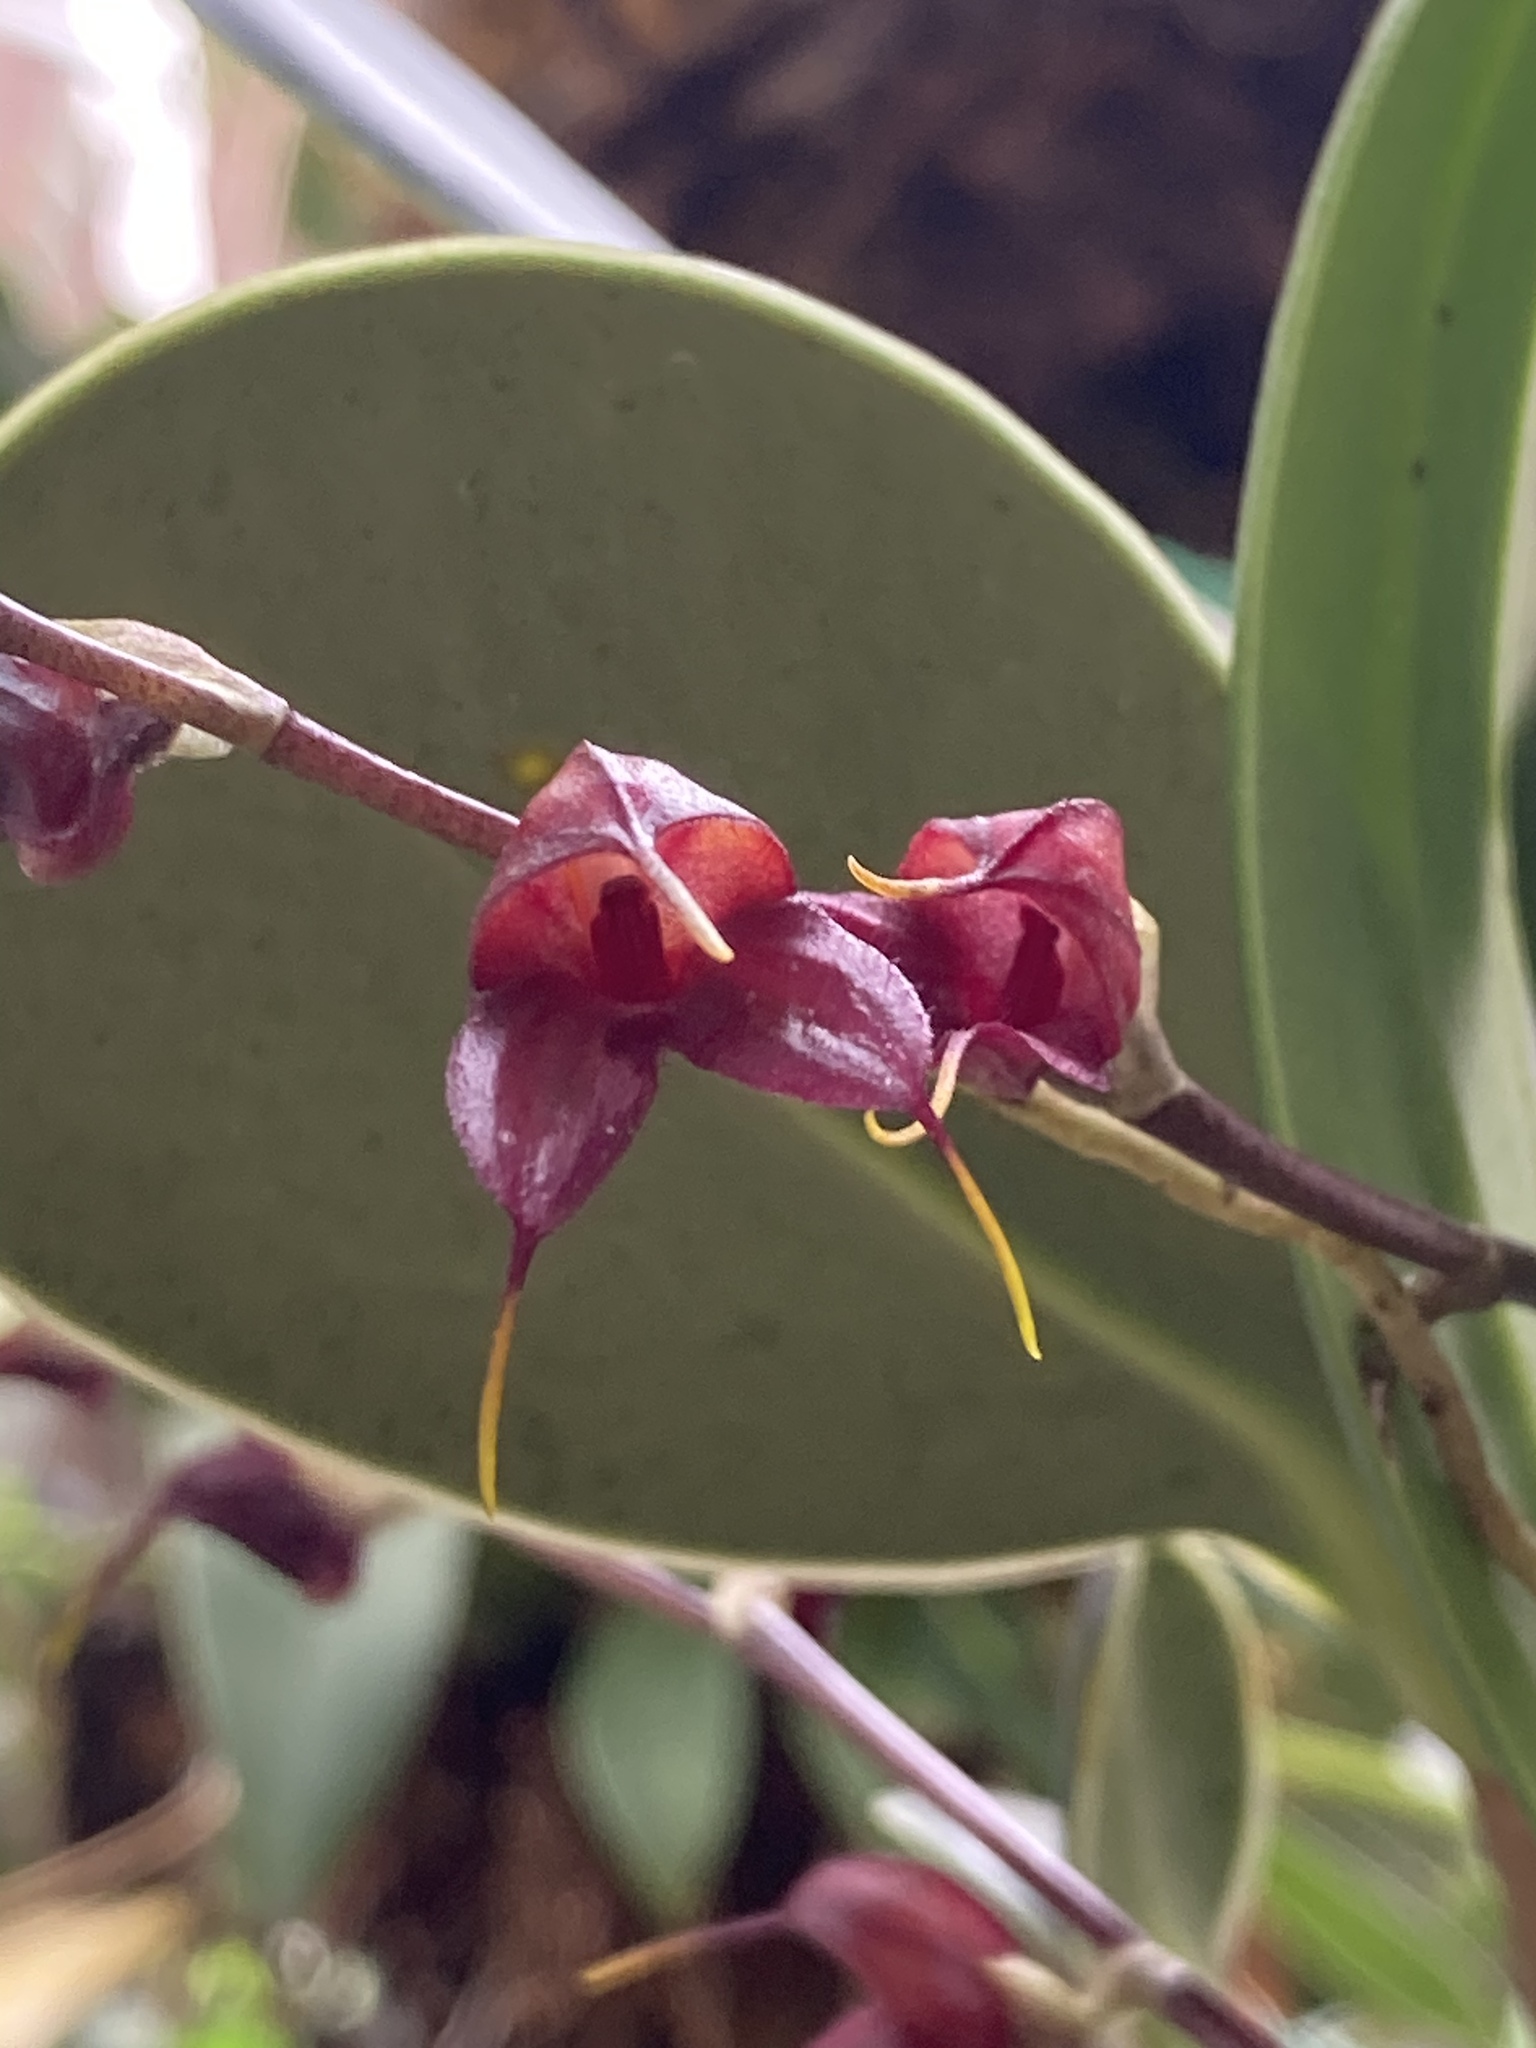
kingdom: Plantae
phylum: Tracheophyta
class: Liliopsida
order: Asparagales
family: Orchidaceae
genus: Masdevallia
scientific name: Masdevallia dimorphotricha
